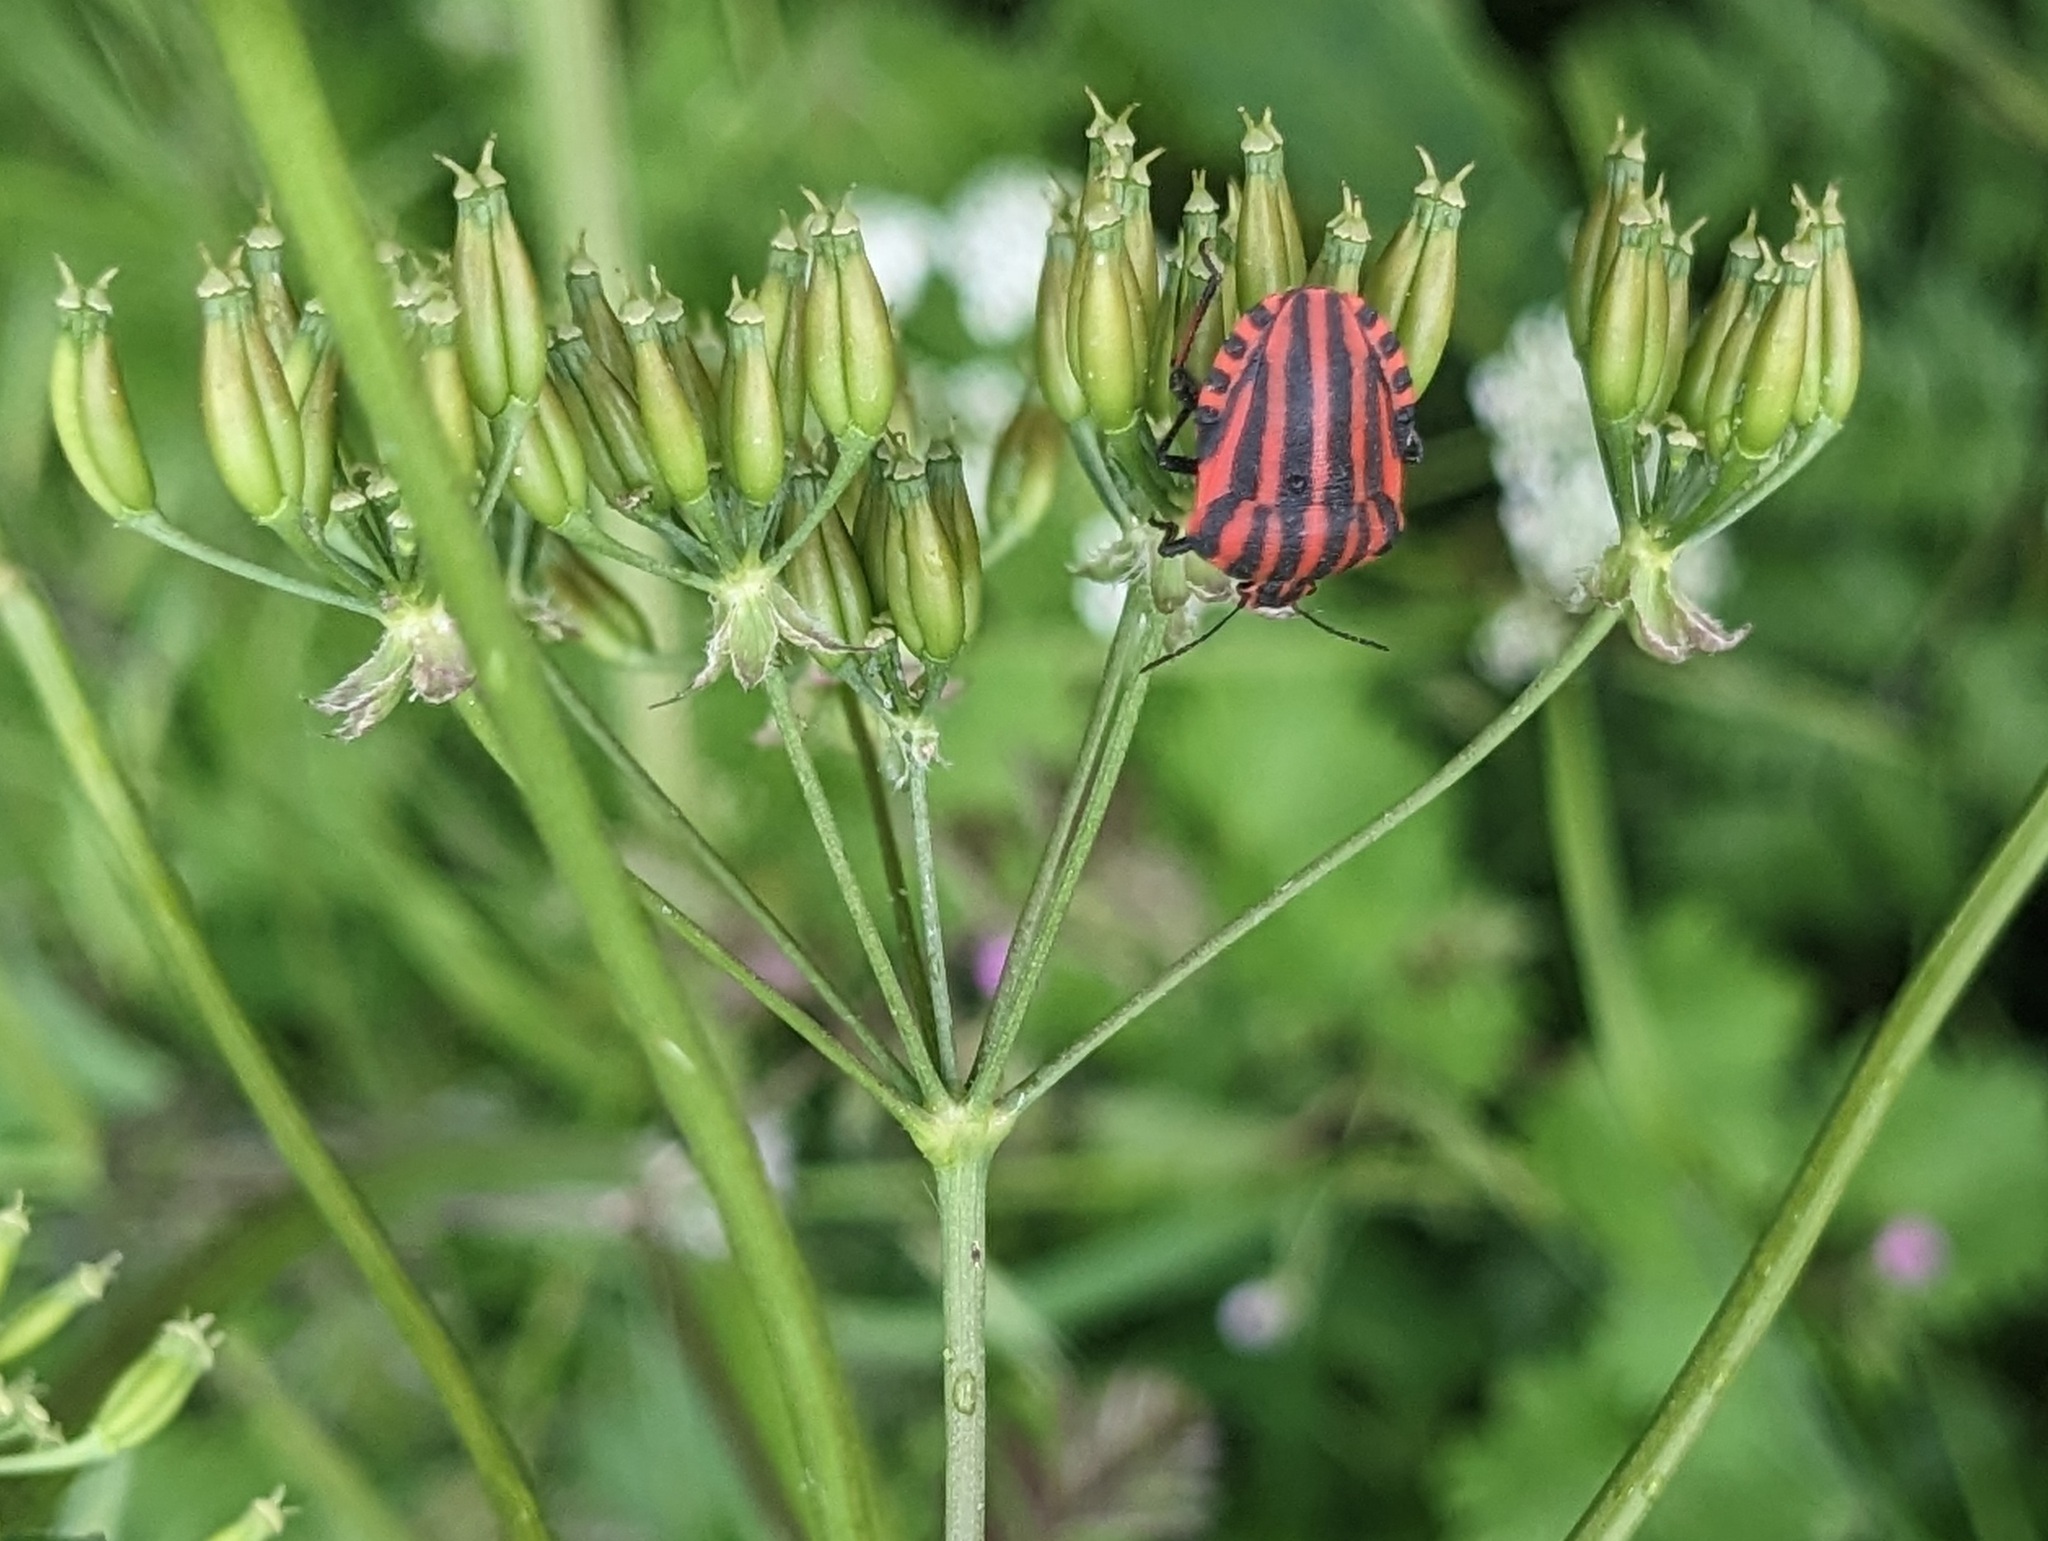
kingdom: Animalia
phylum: Arthropoda
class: Insecta
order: Hemiptera
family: Pentatomidae
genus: Graphosoma
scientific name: Graphosoma italicum
